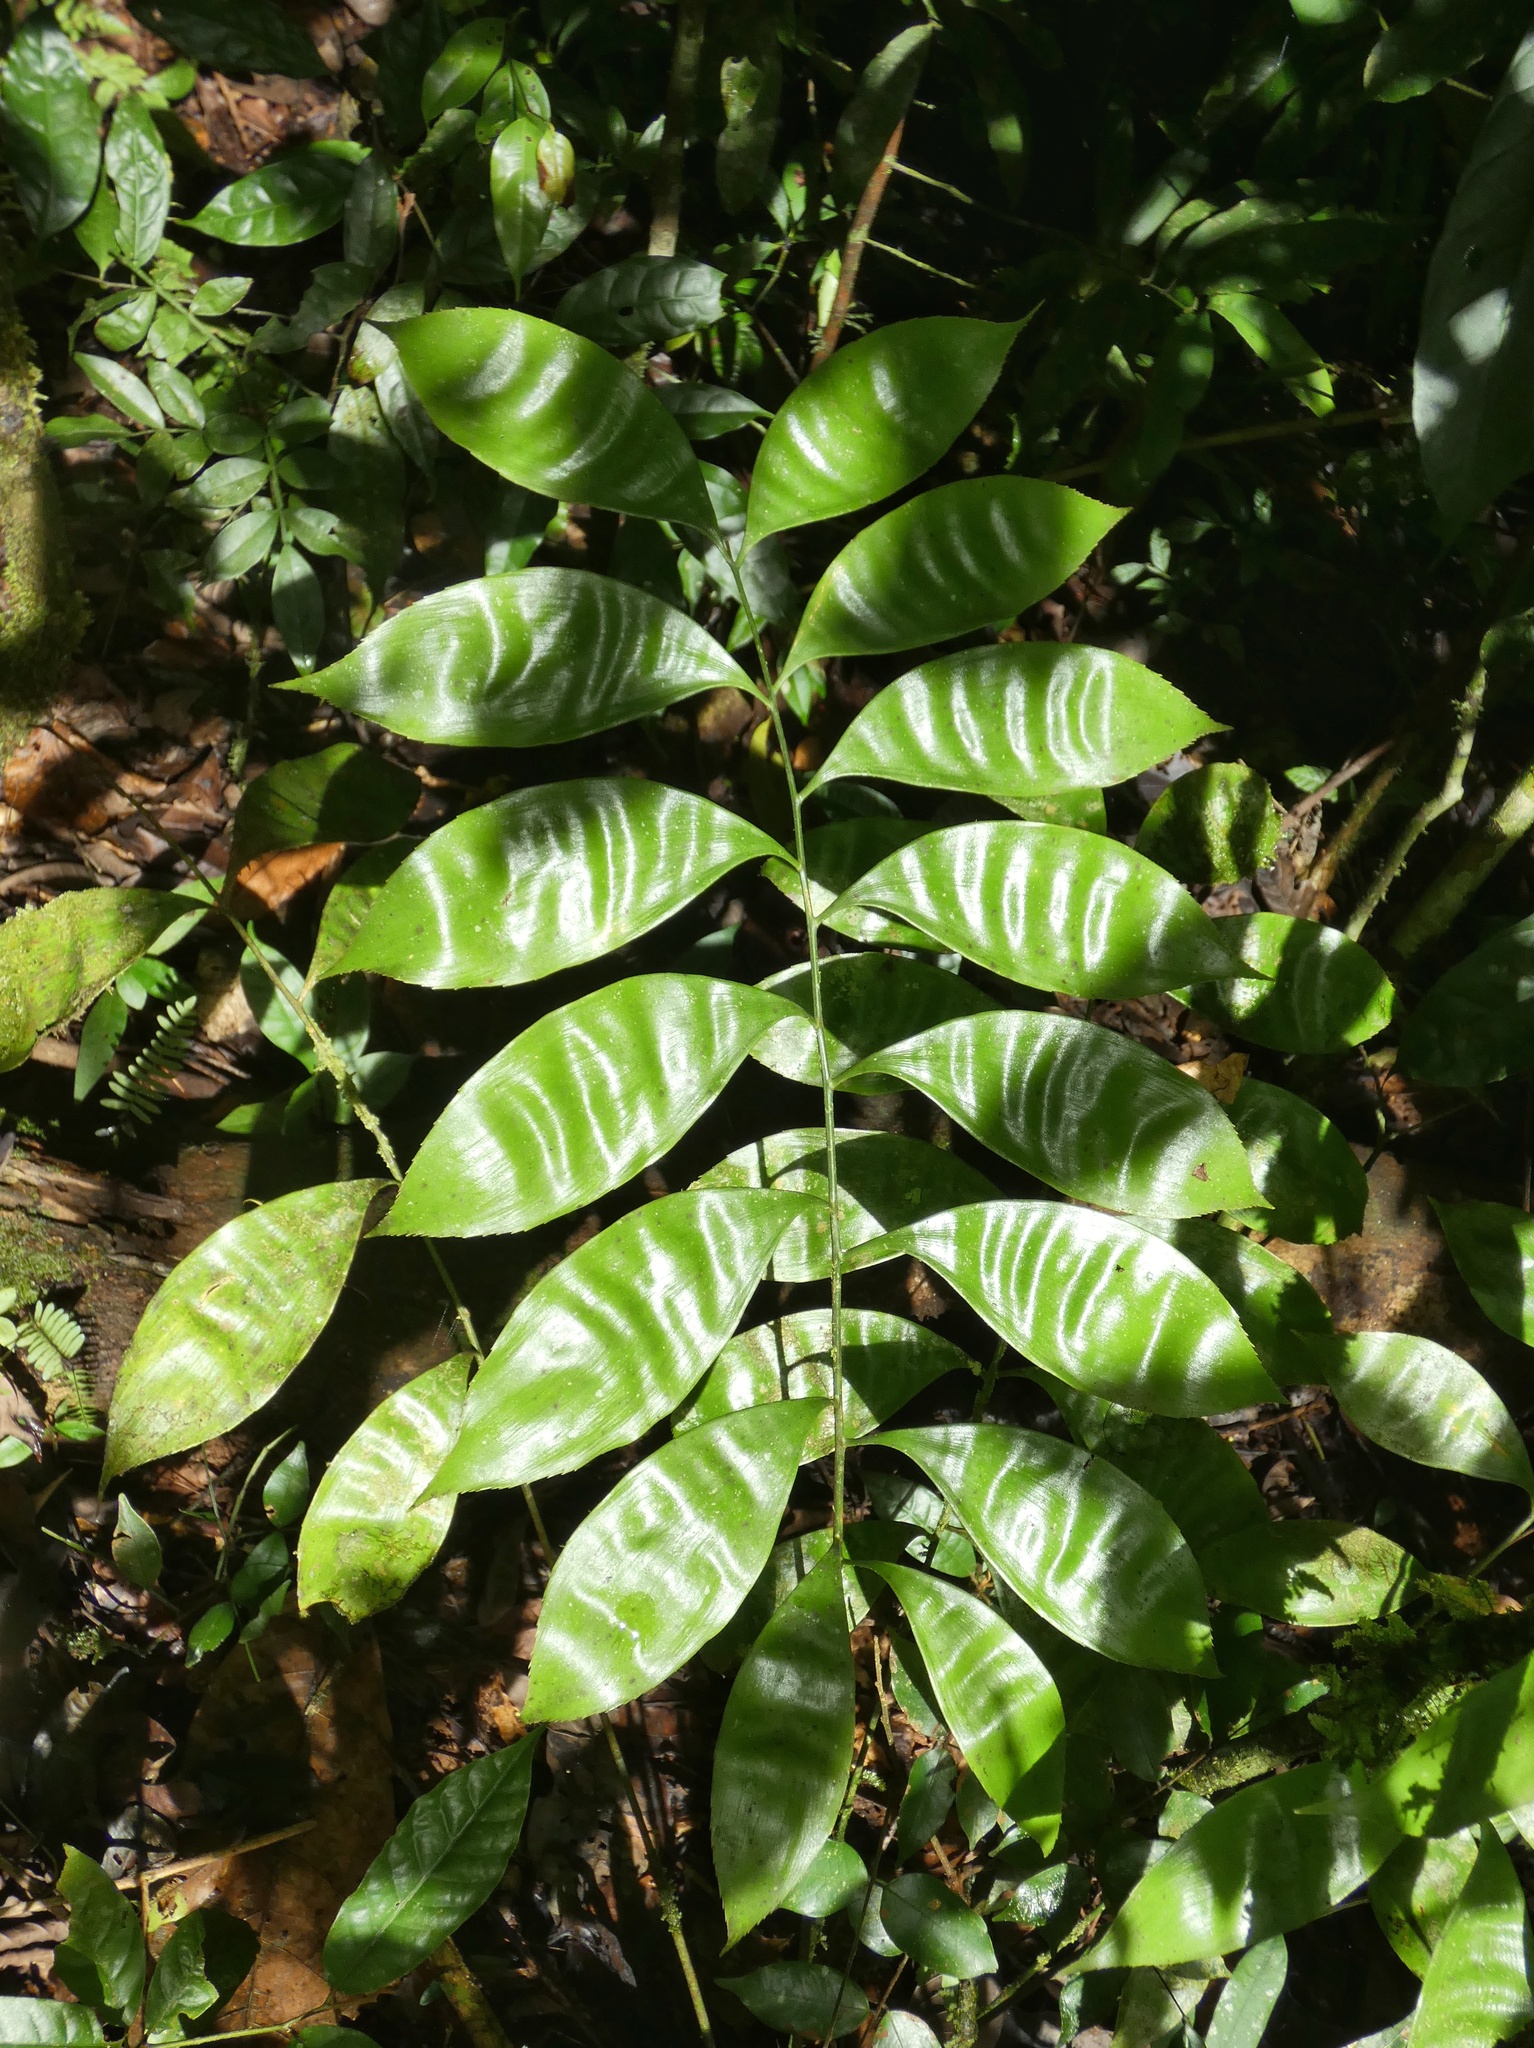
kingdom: Plantae
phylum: Tracheophyta
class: Cycadopsida
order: Cycadales
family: Zamiaceae
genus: Zamia
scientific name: Zamia obliqua
